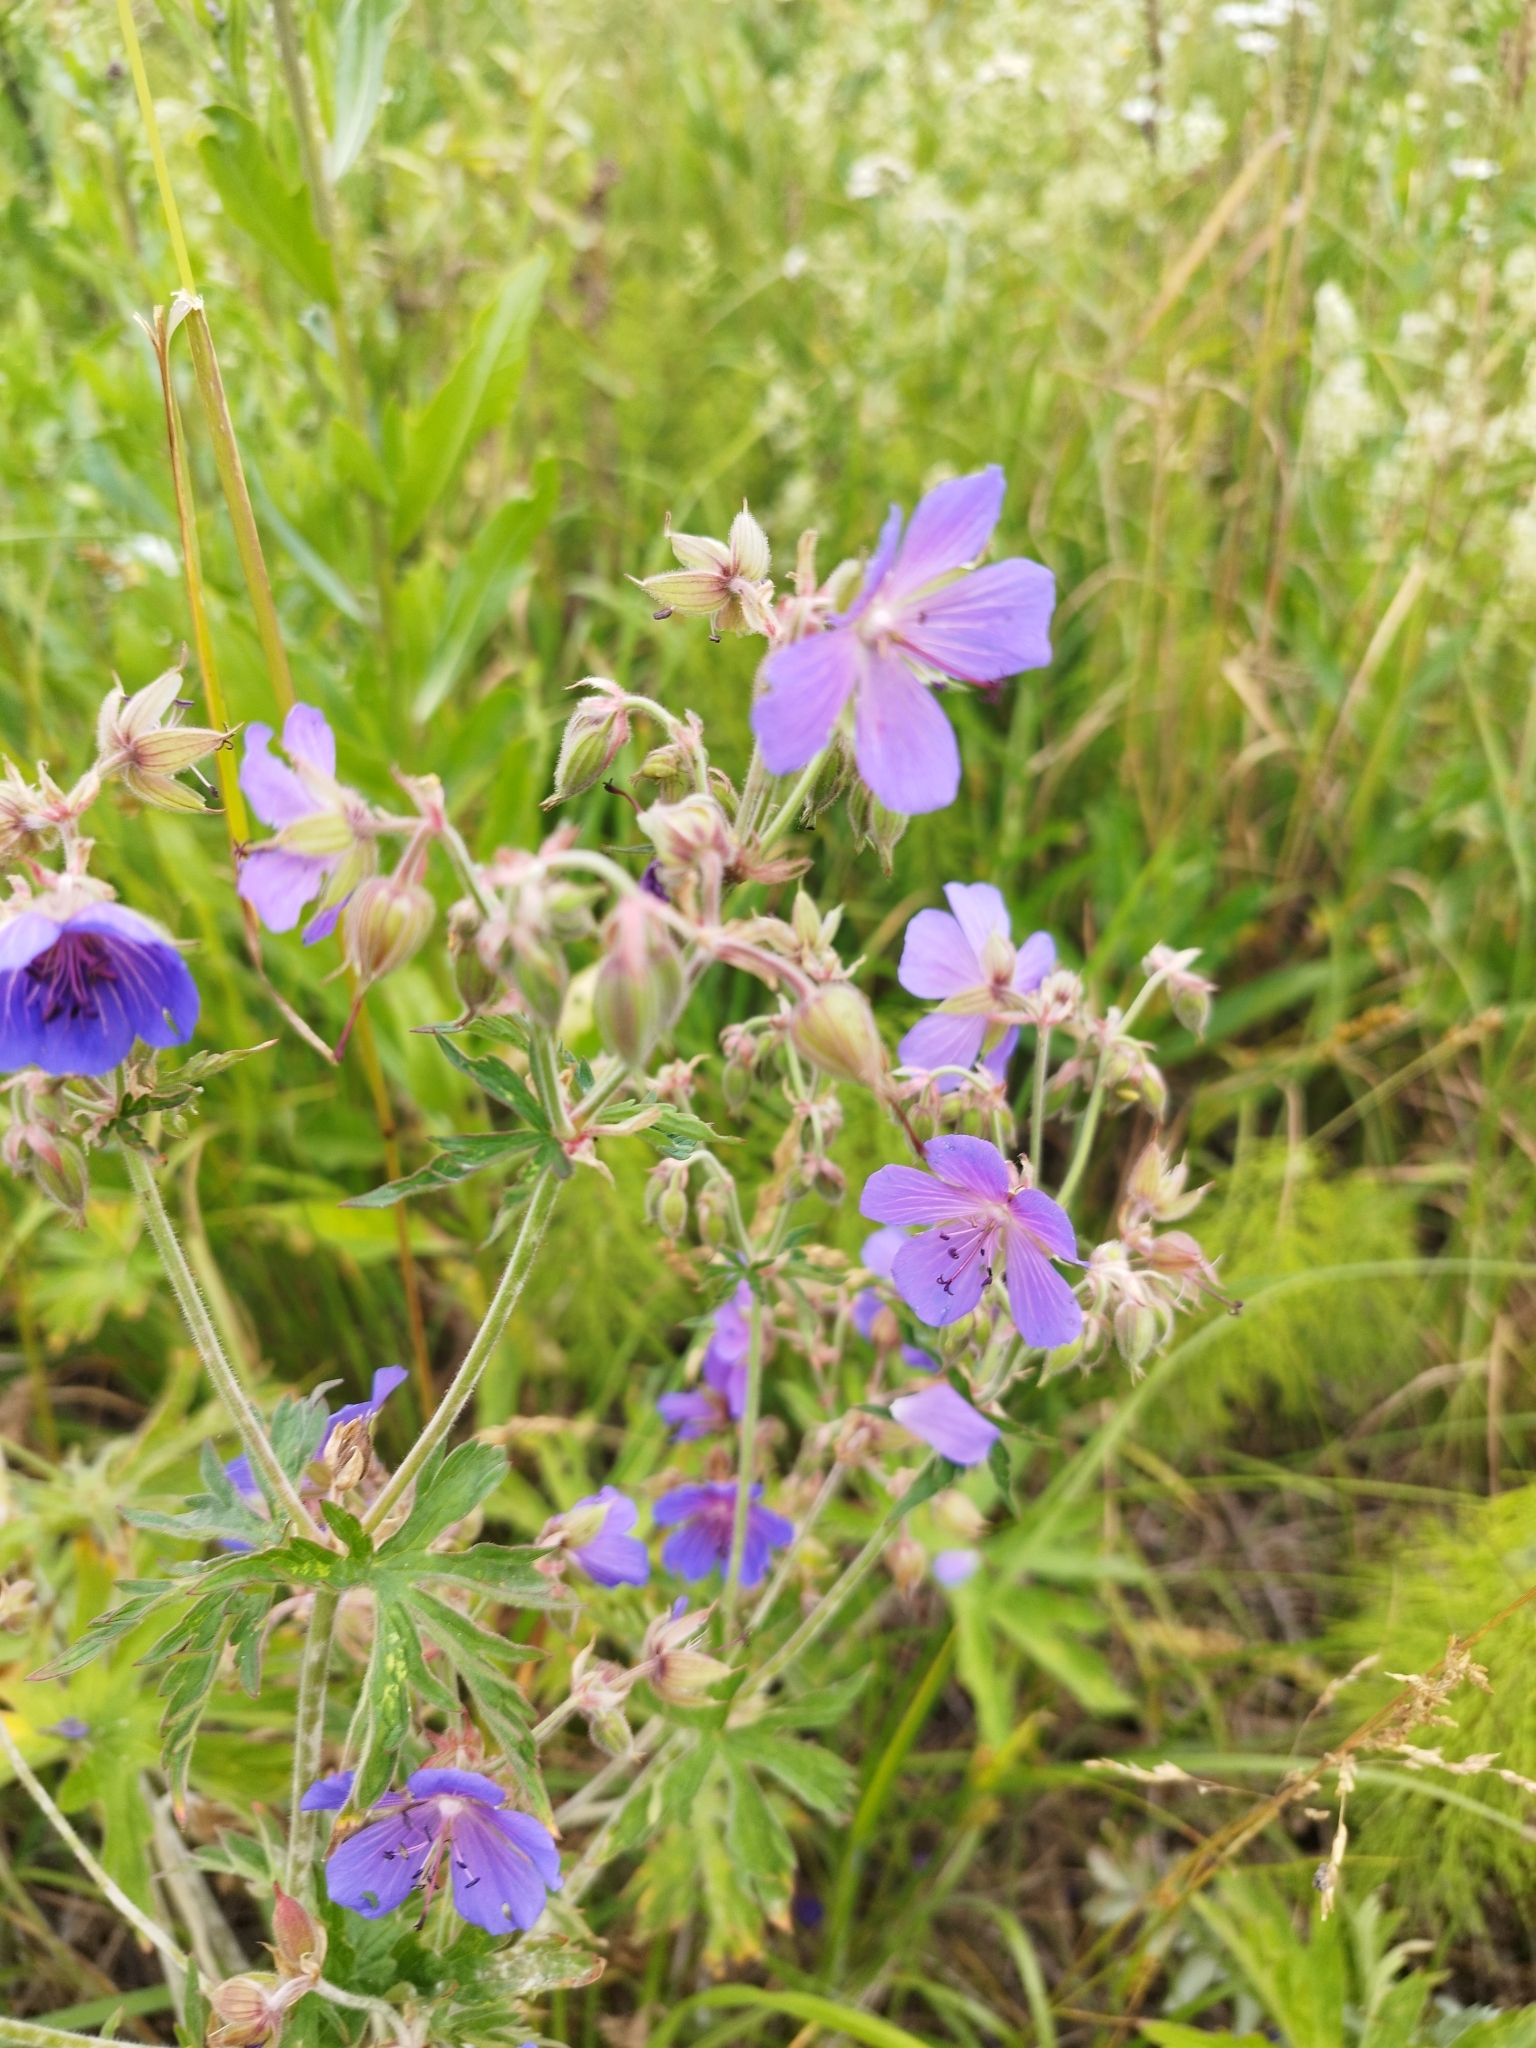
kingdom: Plantae
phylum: Tracheophyta
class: Magnoliopsida
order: Geraniales
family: Geraniaceae
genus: Geranium
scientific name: Geranium pratense
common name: Meadow crane's-bill
